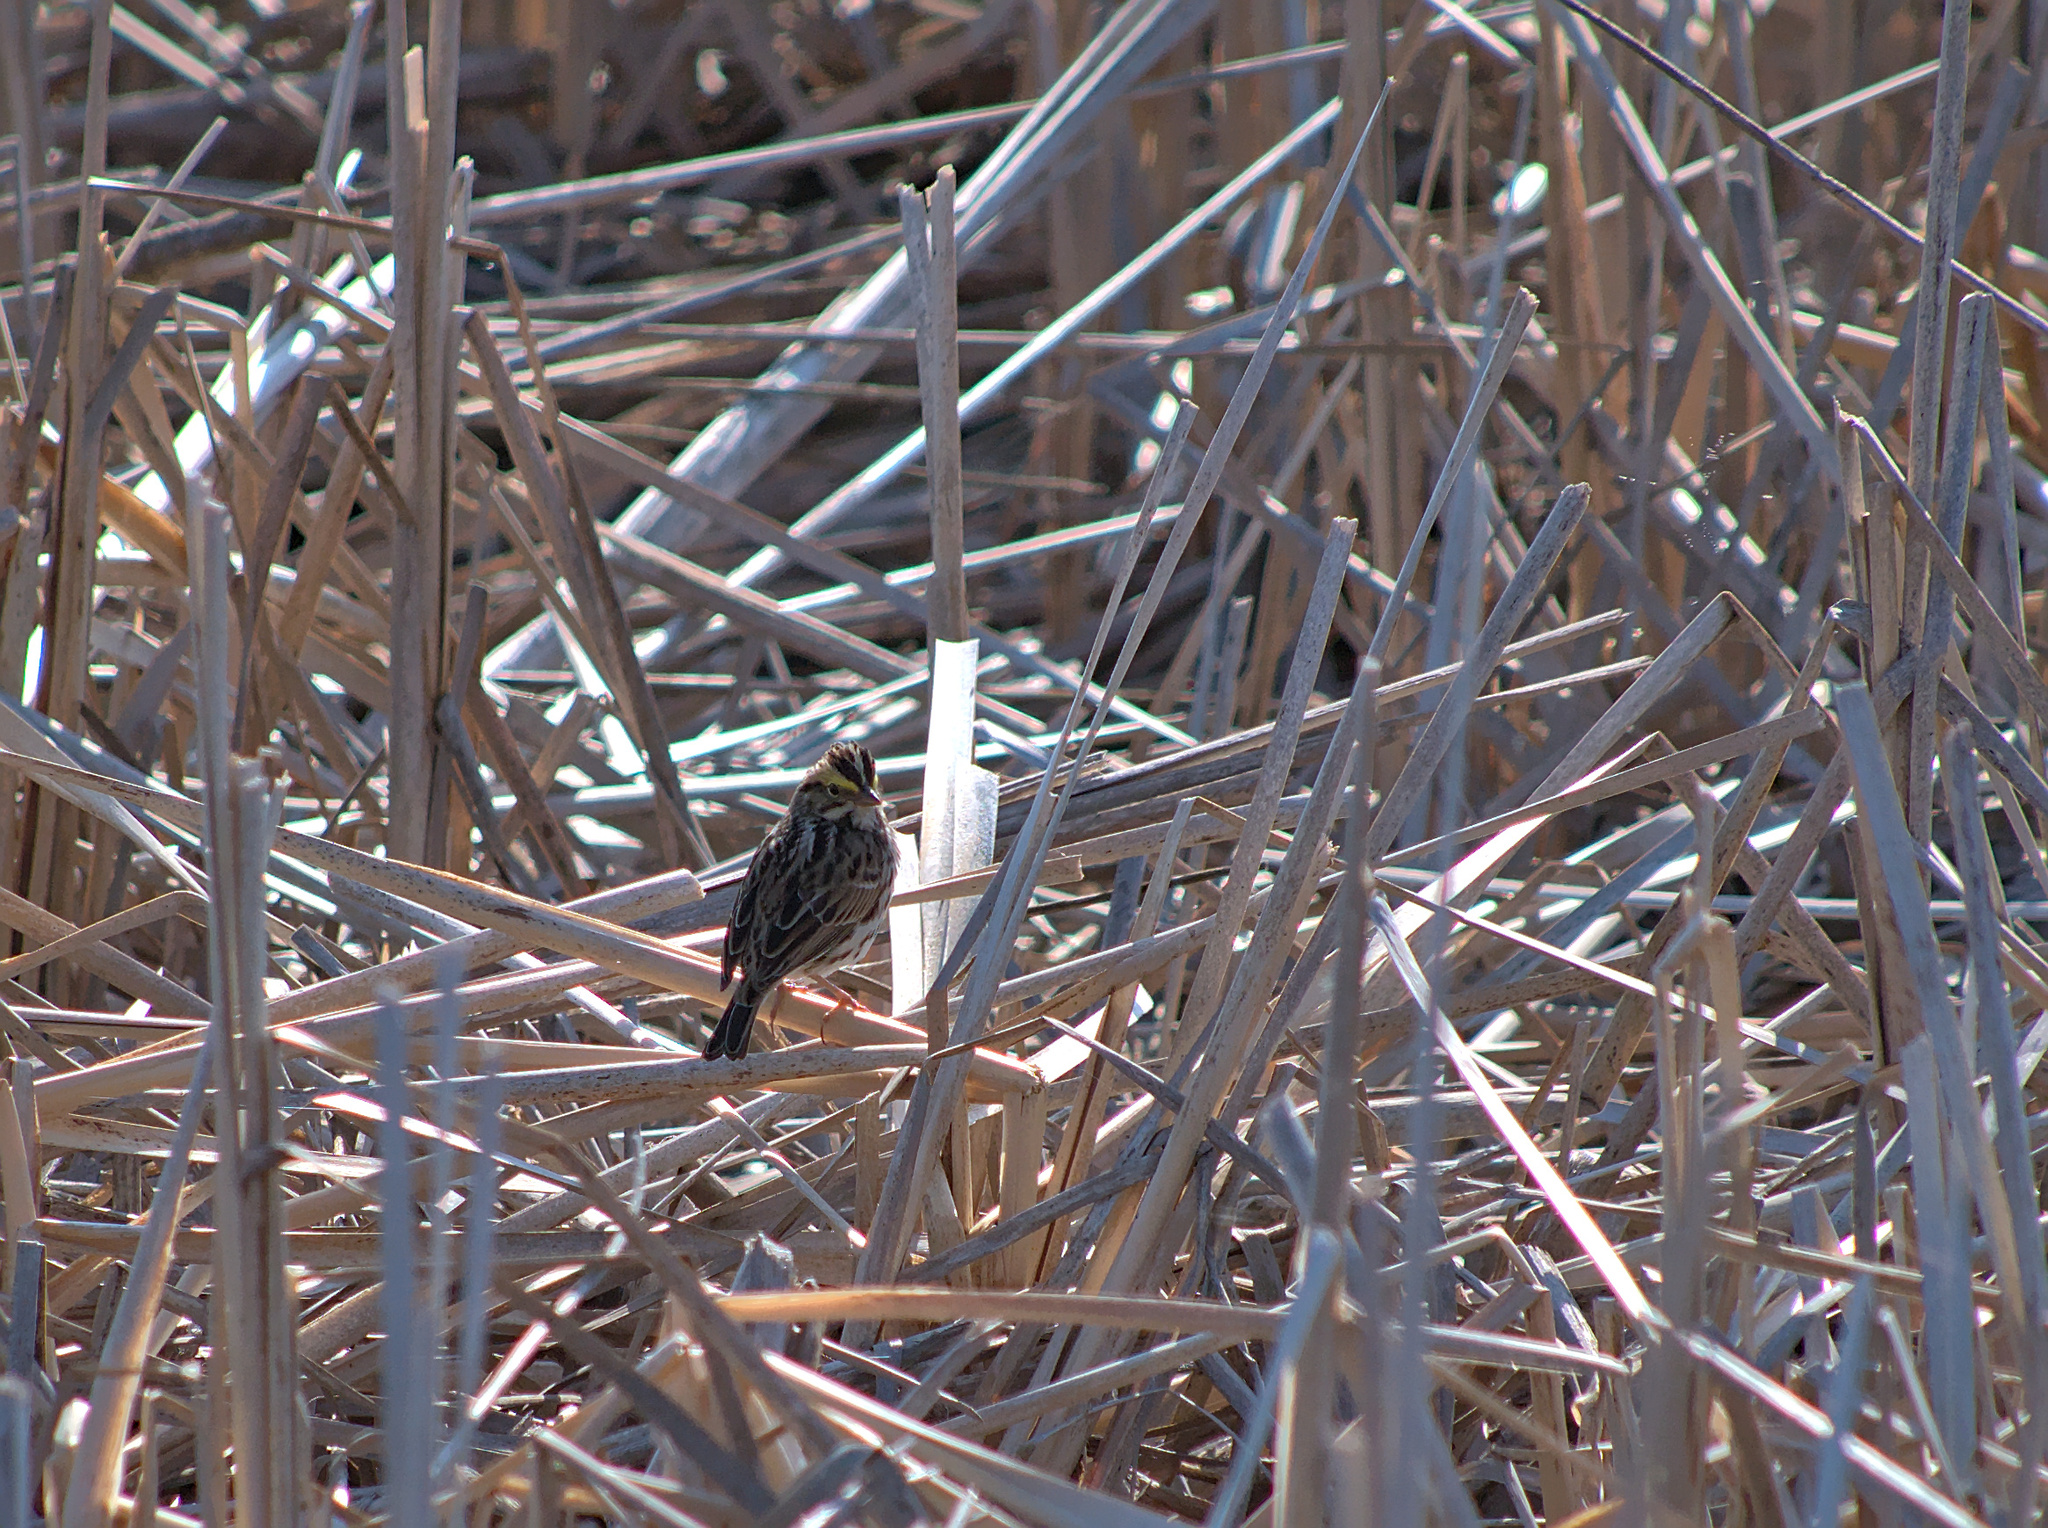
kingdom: Animalia
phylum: Chordata
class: Aves
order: Passeriformes
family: Passerellidae
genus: Passerculus
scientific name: Passerculus sandwichensis
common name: Savannah sparrow
